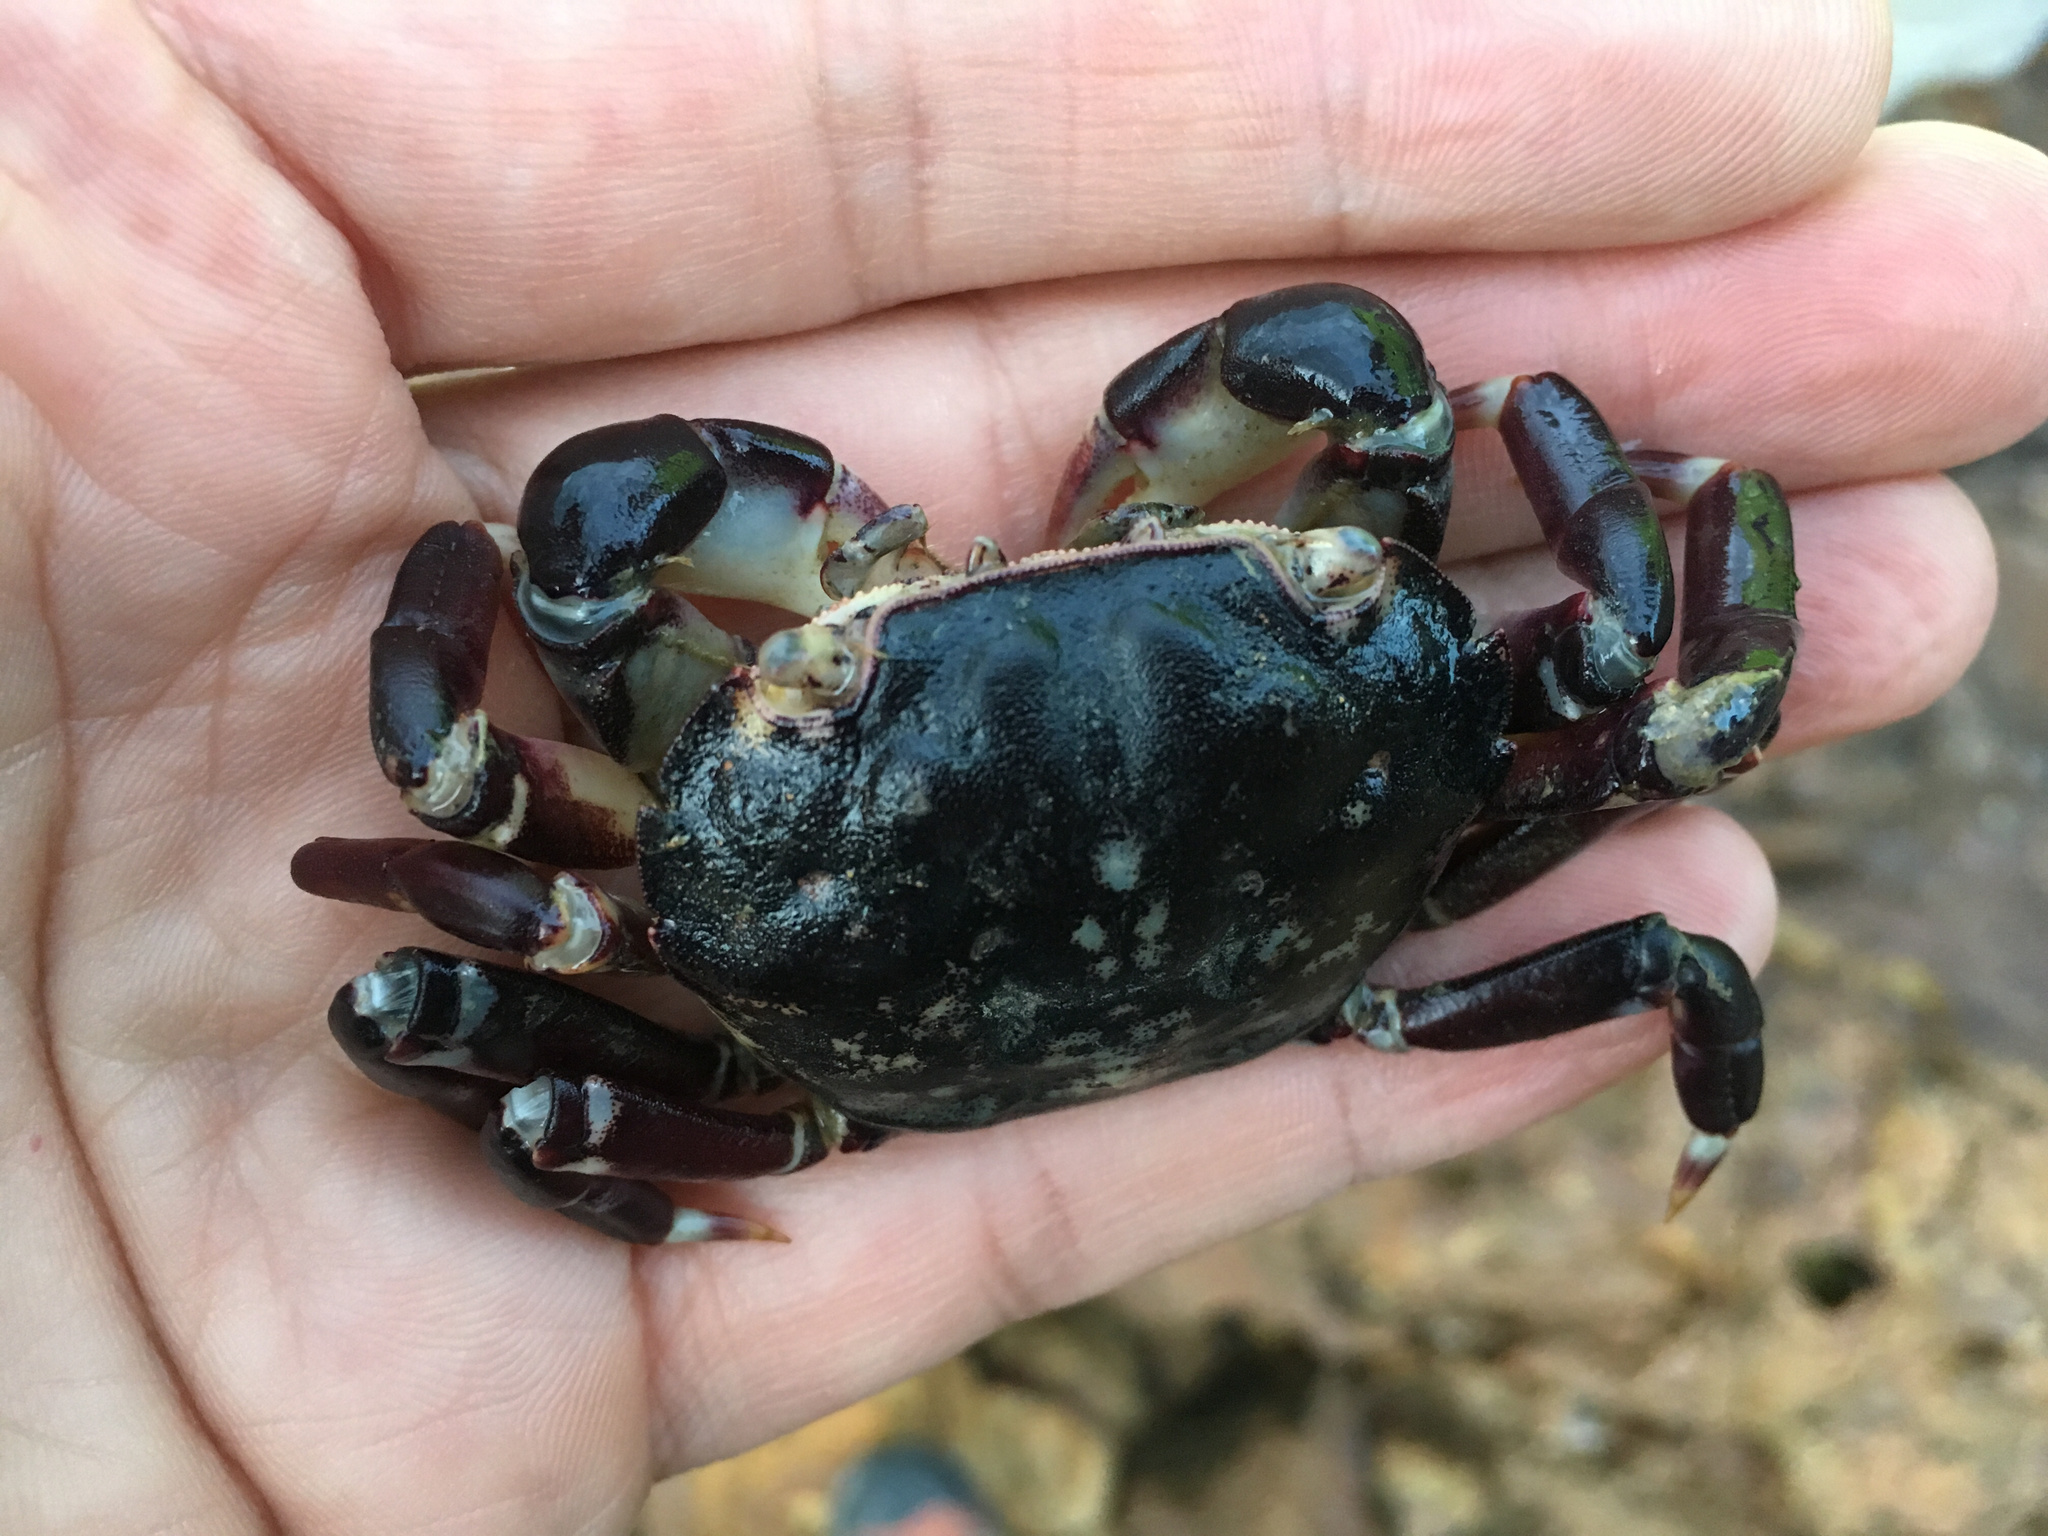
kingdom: Animalia
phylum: Arthropoda
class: Malacostraca
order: Decapoda
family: Varunidae
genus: Hemigrapsus
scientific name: Hemigrapsus sexdentatus
